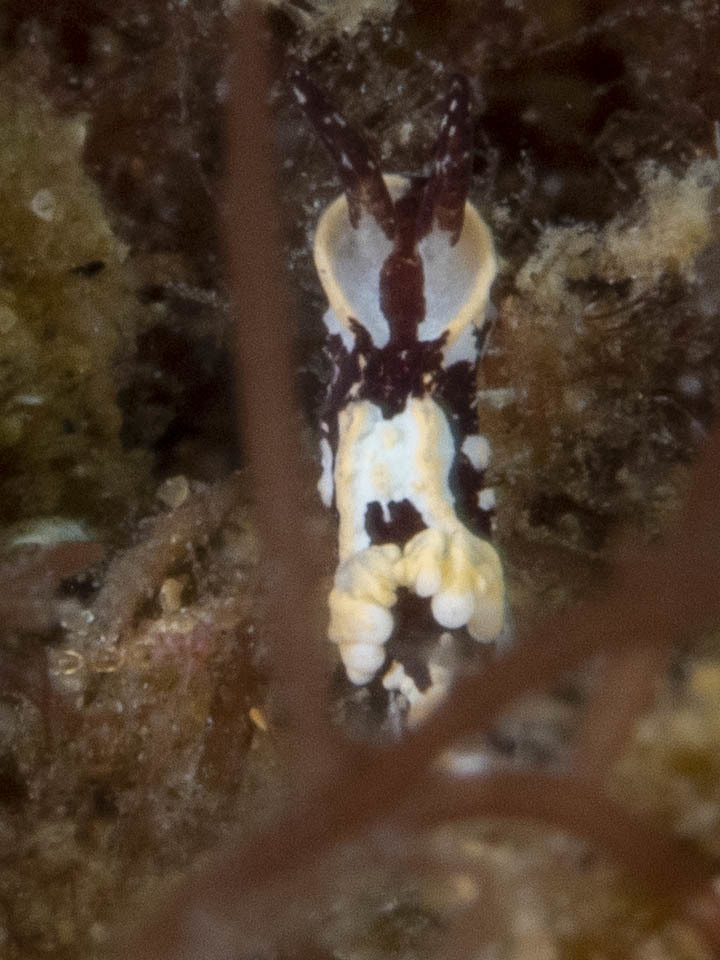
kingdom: Animalia
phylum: Mollusca
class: Gastropoda
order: Nudibranchia
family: Goniodorididae
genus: Murphydoris
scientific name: Murphydoris adusta
